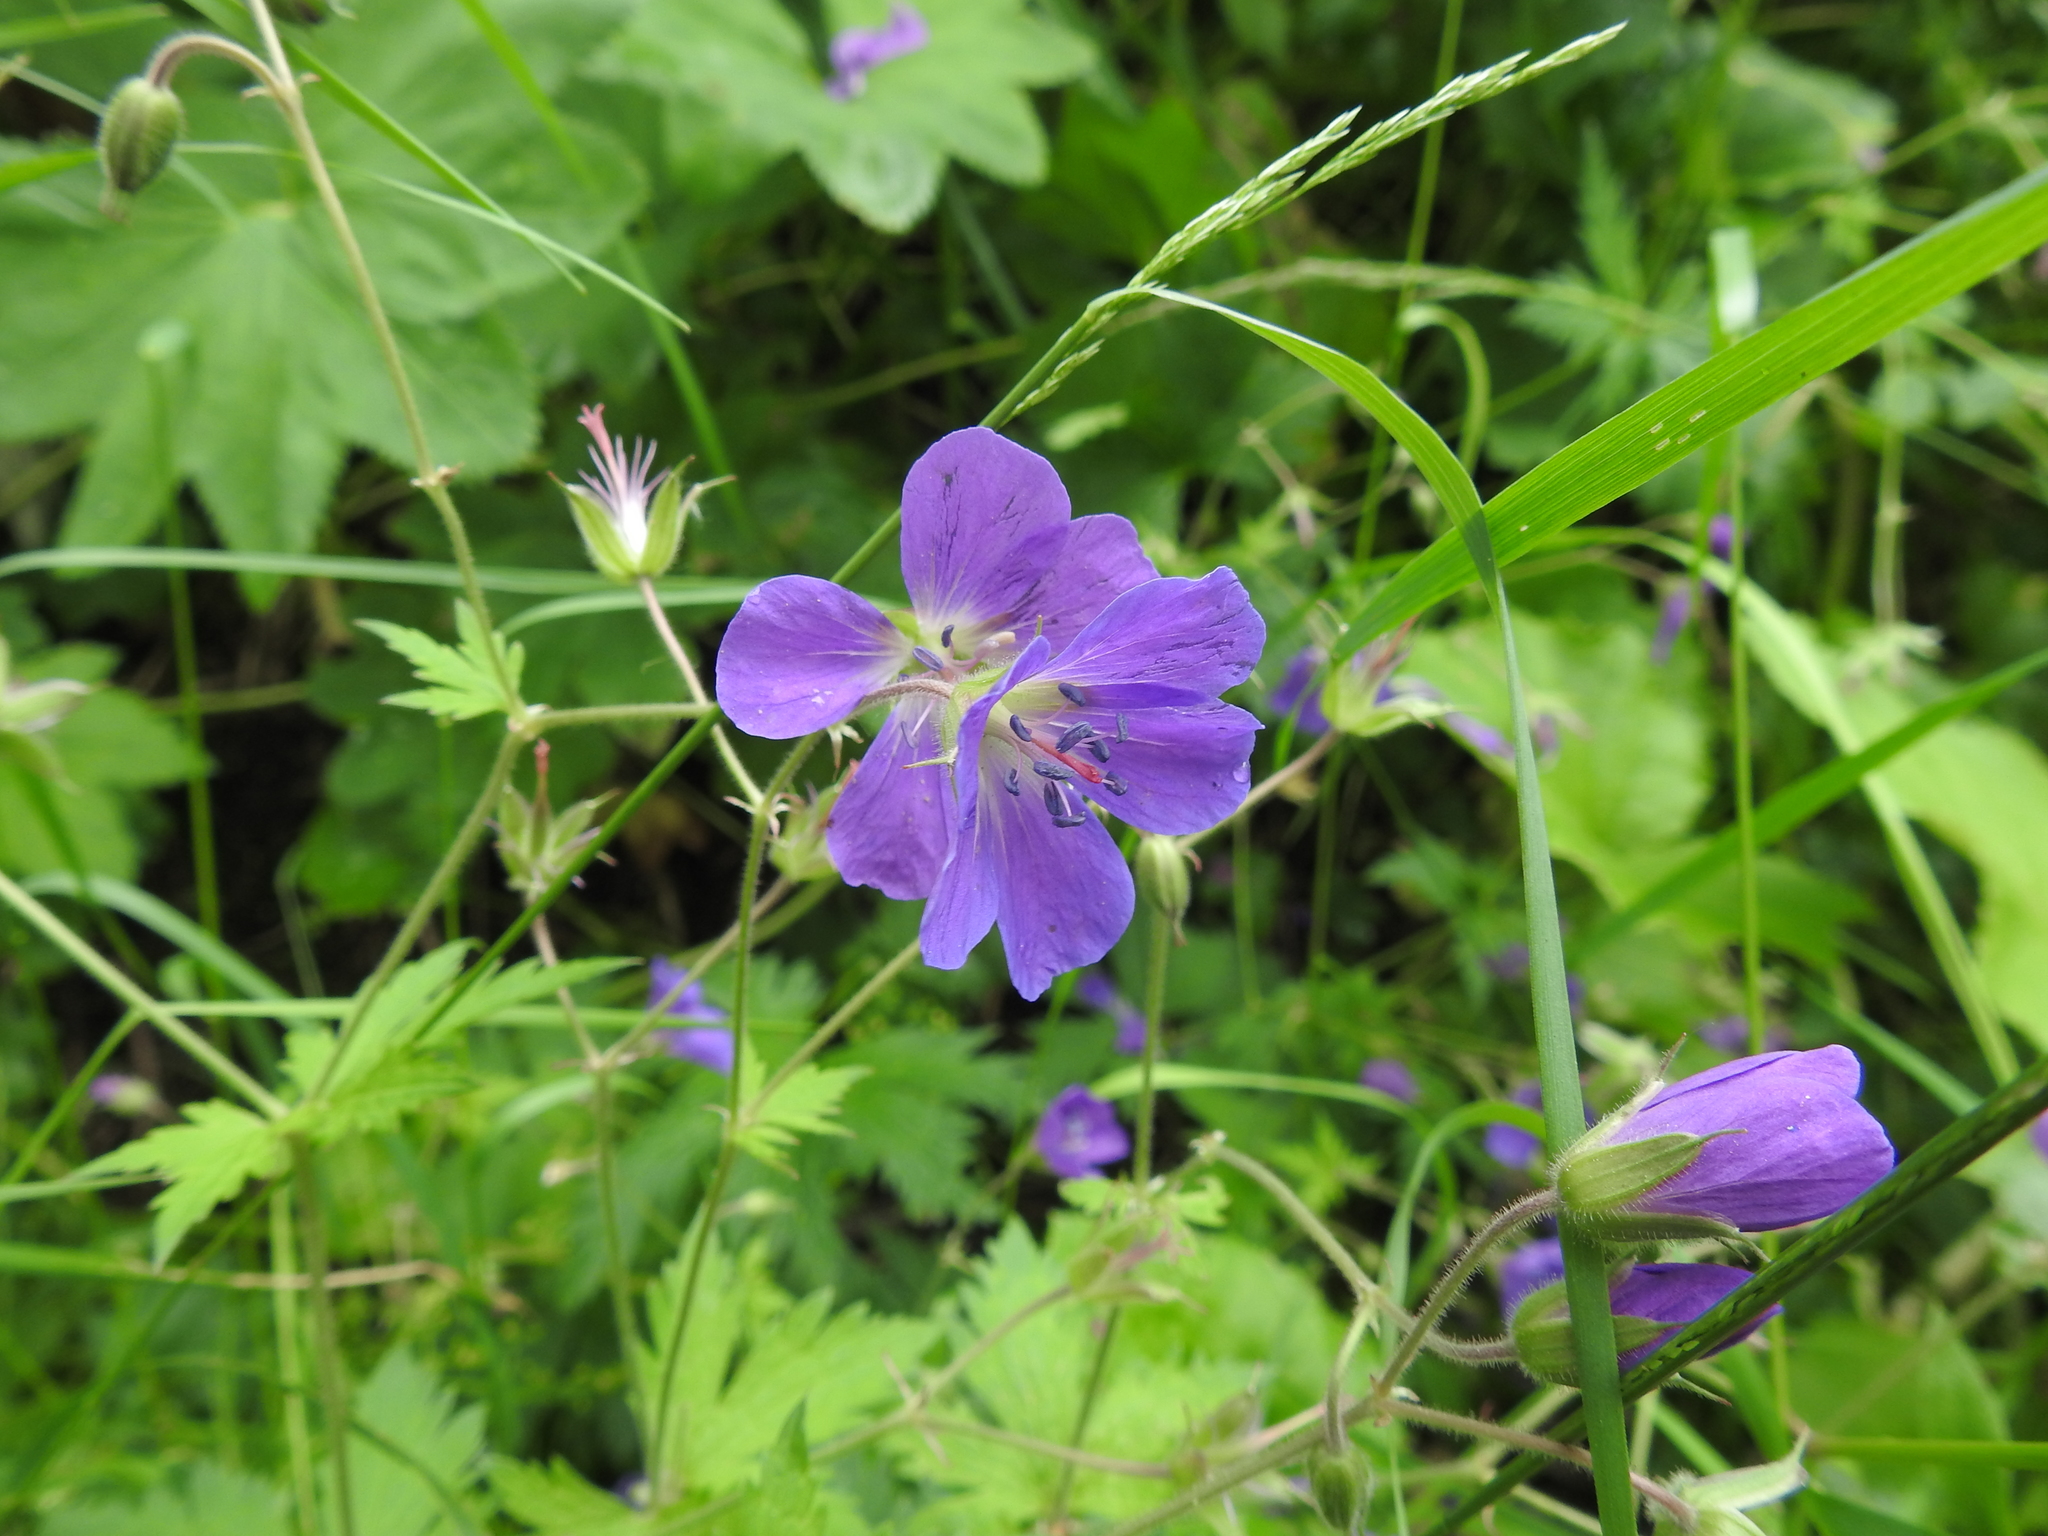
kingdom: Plantae
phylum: Tracheophyta
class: Magnoliopsida
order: Geraniales
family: Geraniaceae
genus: Geranium
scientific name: Geranium sylvaticum
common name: Wood crane's-bill
